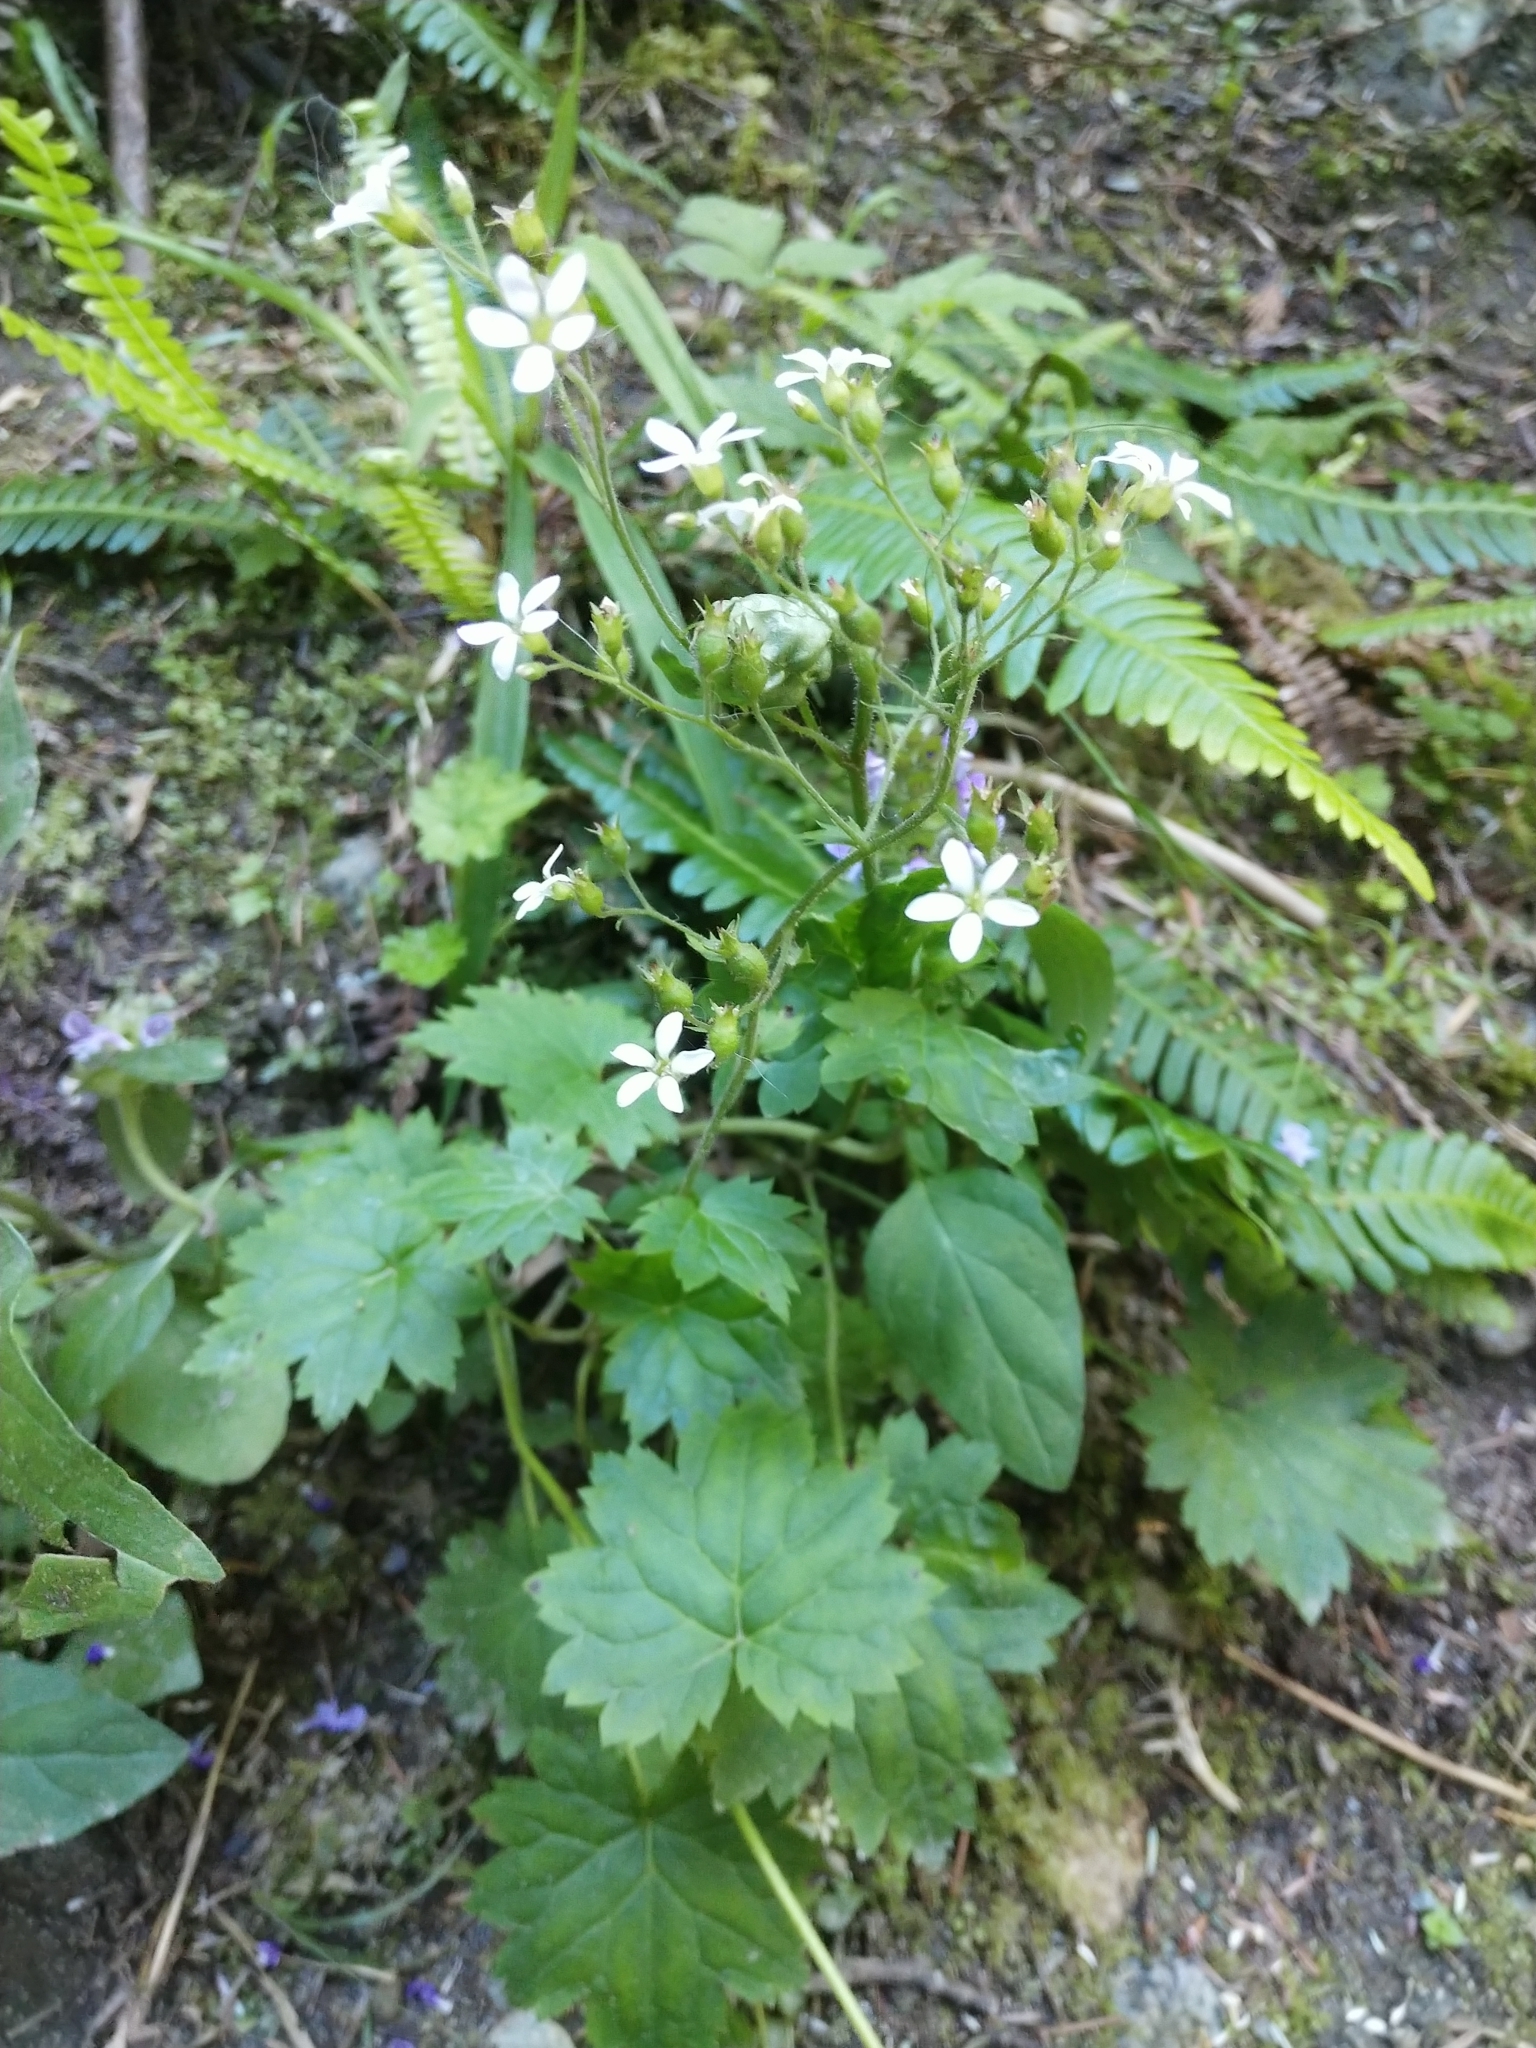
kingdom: Plantae
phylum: Tracheophyta
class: Magnoliopsida
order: Saxifragales
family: Saxifragaceae
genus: Boykinia
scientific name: Boykinia occidentalis
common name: Coast boykinia
